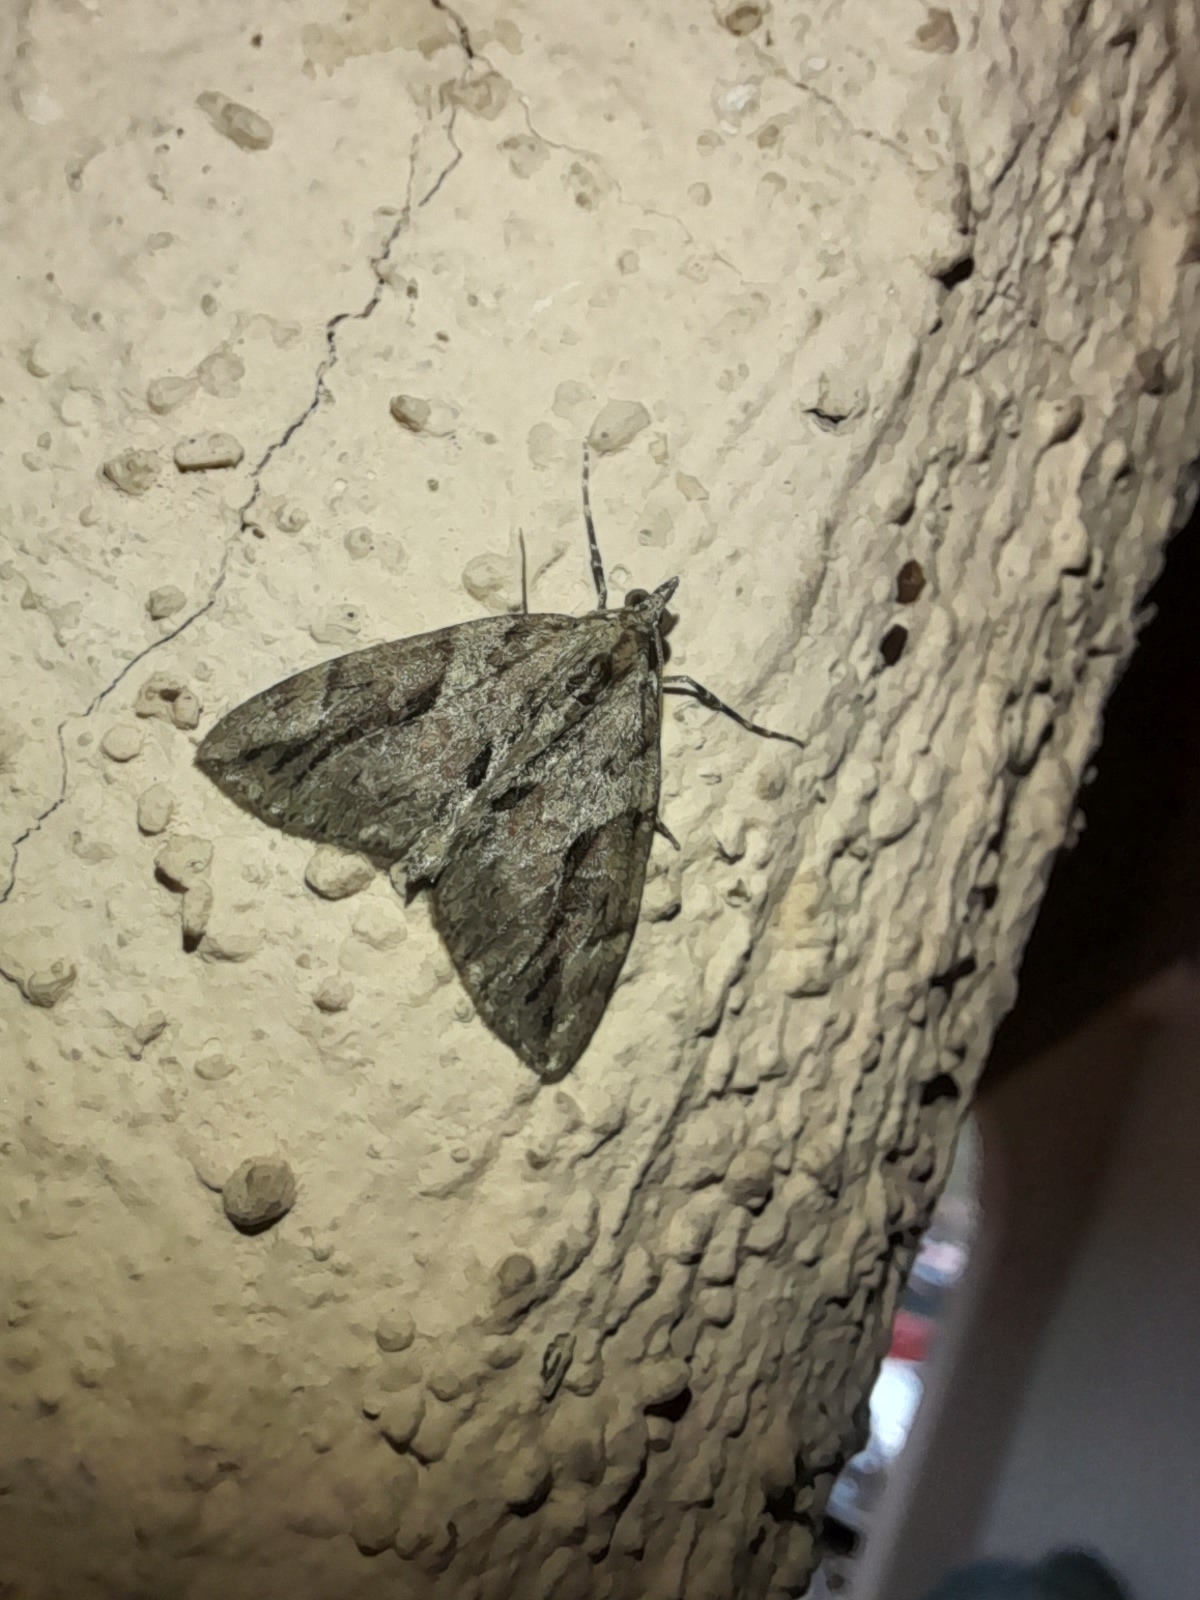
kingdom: Animalia
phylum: Arthropoda
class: Insecta
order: Lepidoptera
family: Geometridae
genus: Thera
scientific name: Thera cupressata
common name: Cypress carpet
